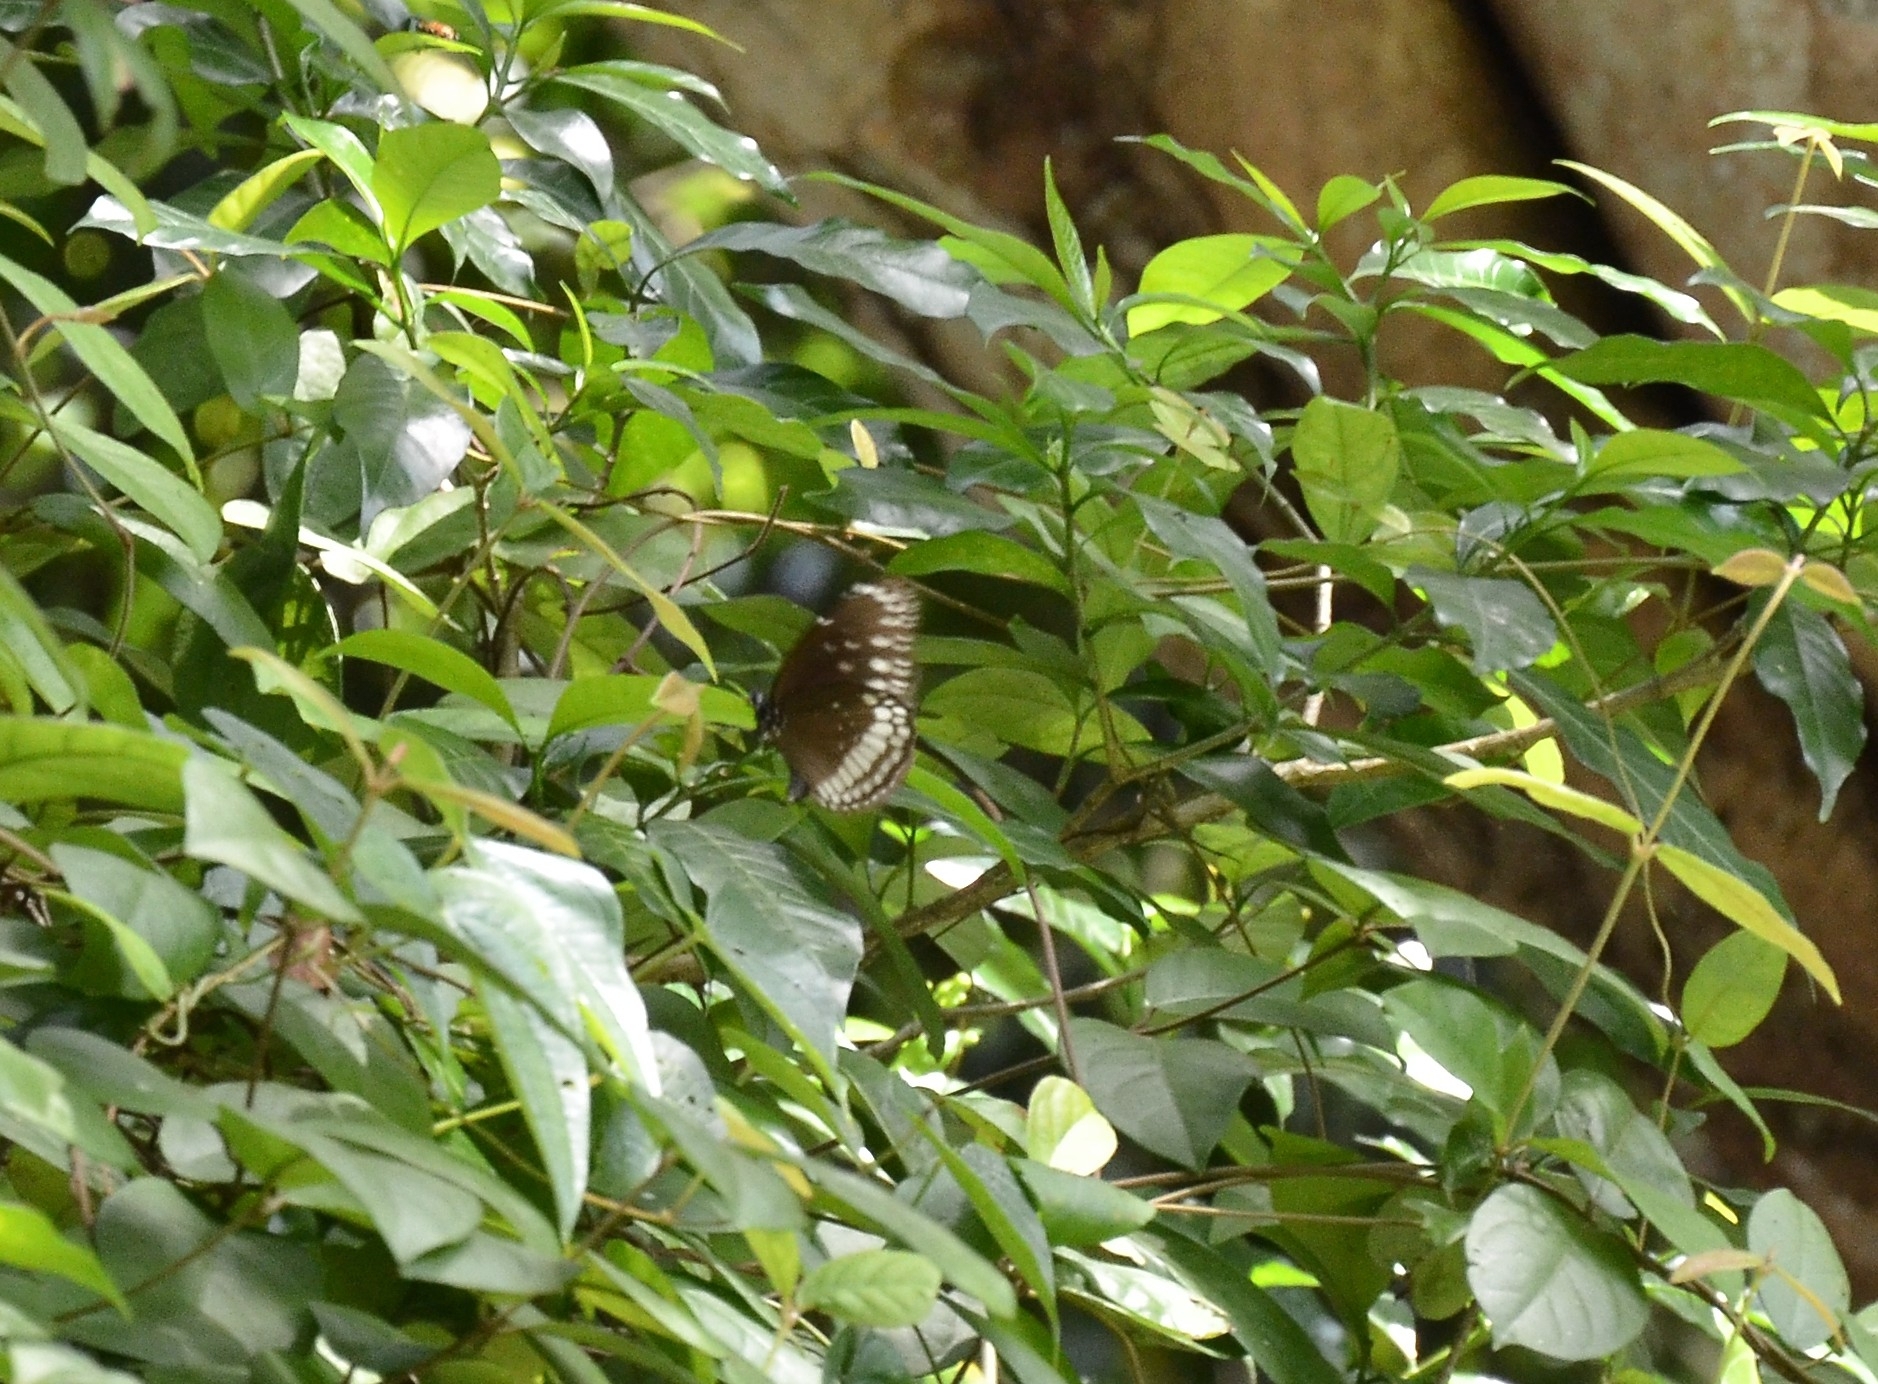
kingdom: Animalia
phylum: Arthropoda
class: Insecta
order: Lepidoptera
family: Nymphalidae
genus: Euploea
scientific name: Euploea core
